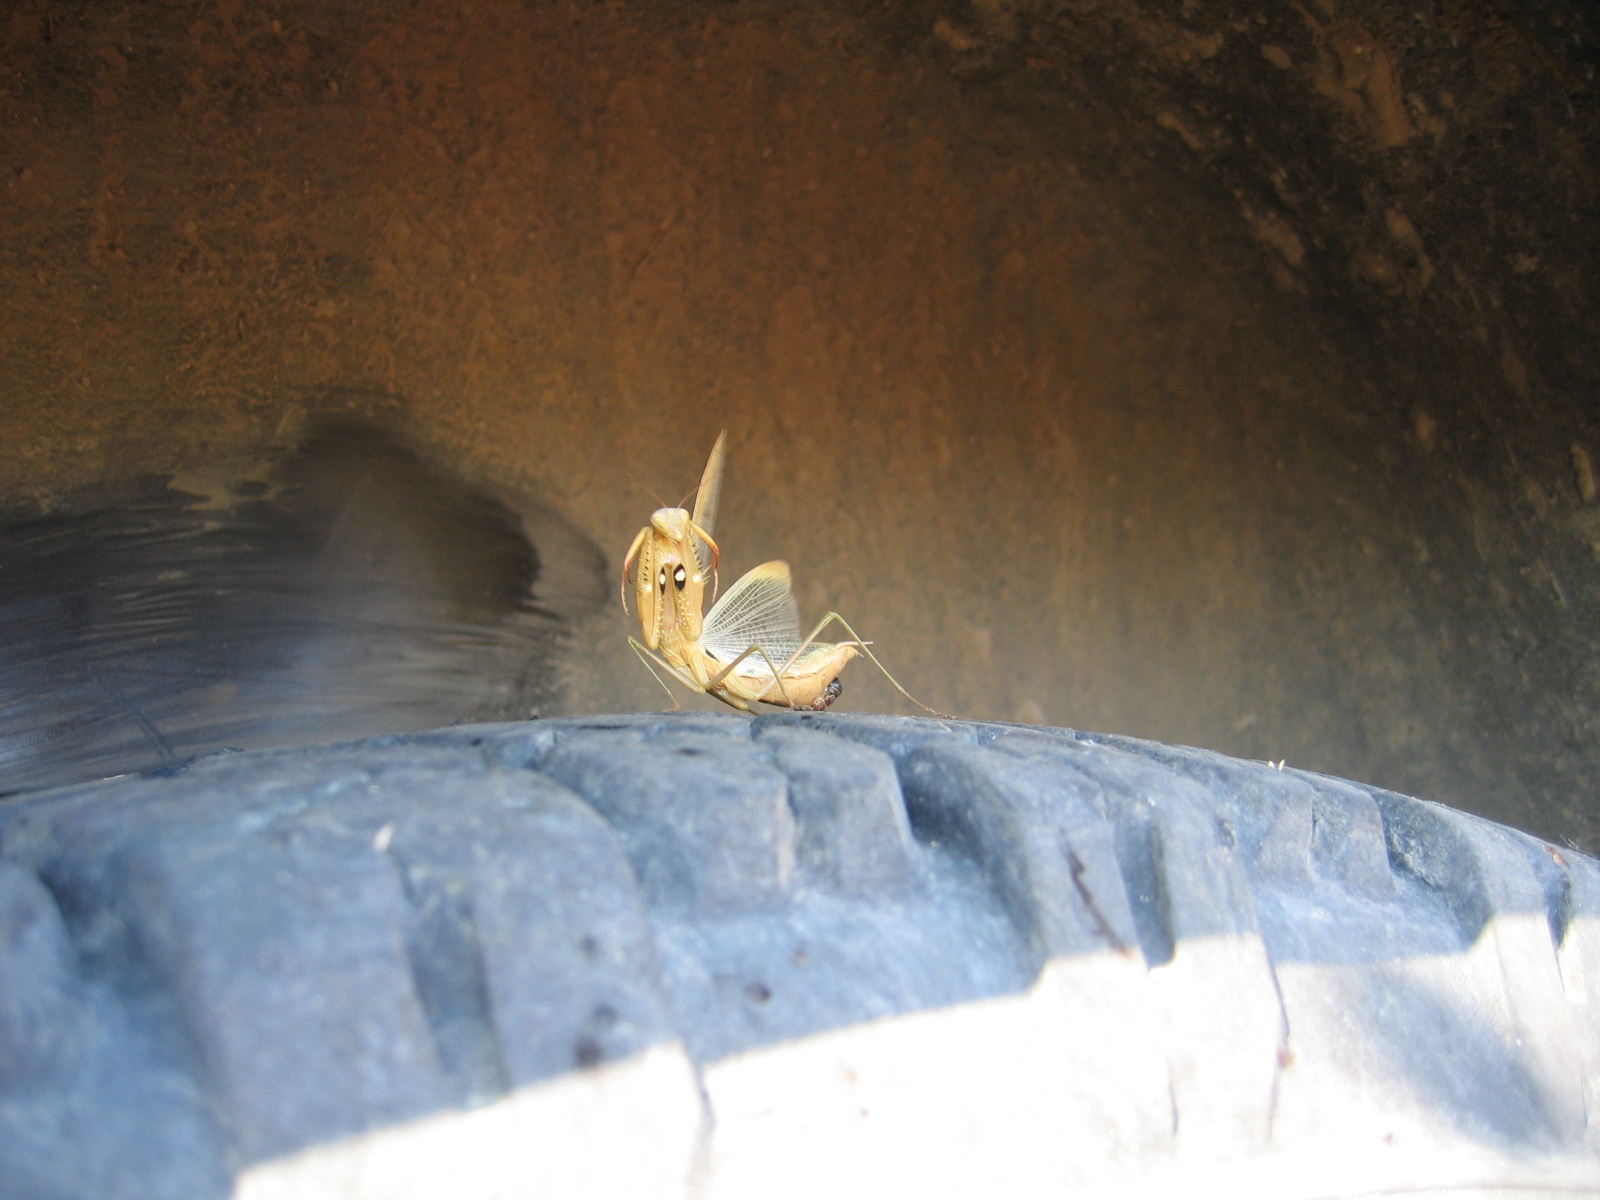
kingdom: Animalia
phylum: Arthropoda
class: Insecta
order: Mantodea
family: Mantidae
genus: Mantis
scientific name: Mantis religiosa
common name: Praying mantis
